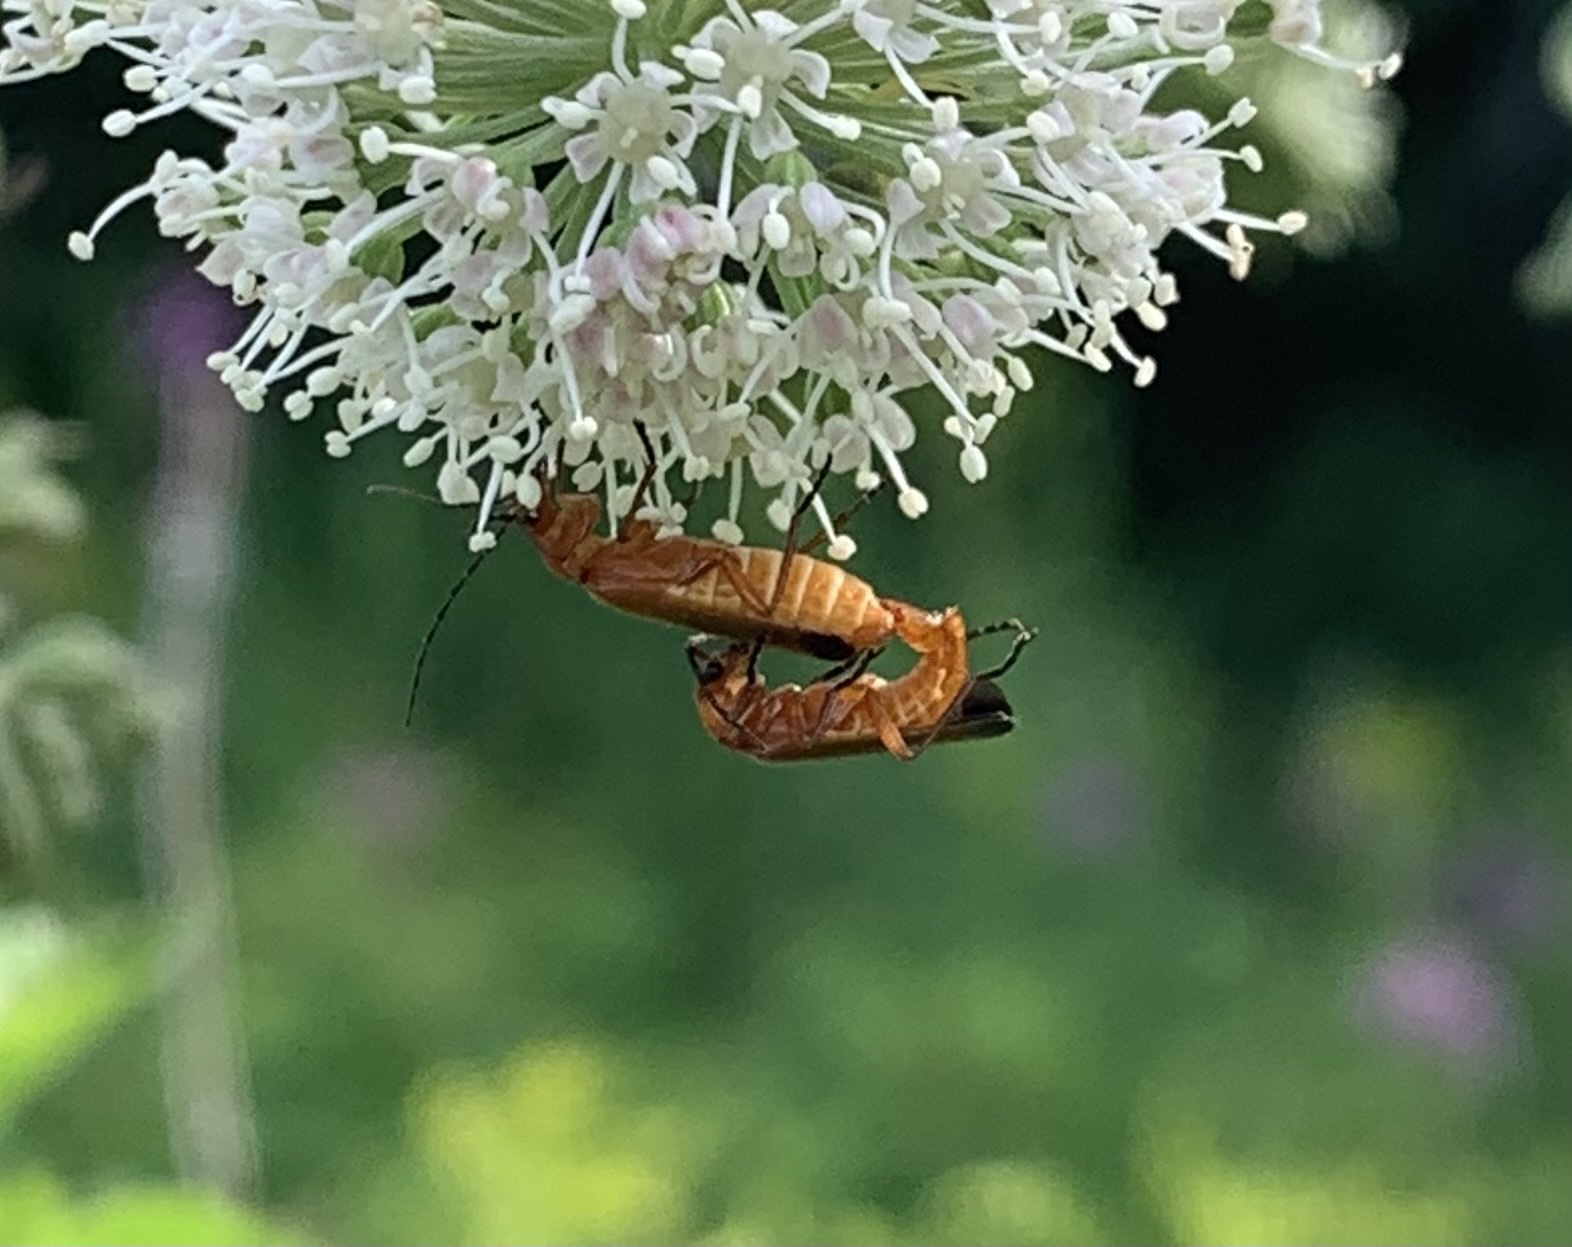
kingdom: Animalia
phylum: Arthropoda
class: Insecta
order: Coleoptera
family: Cantharidae
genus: Rhagonycha
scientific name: Rhagonycha fulva
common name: Common red soldier beetle
